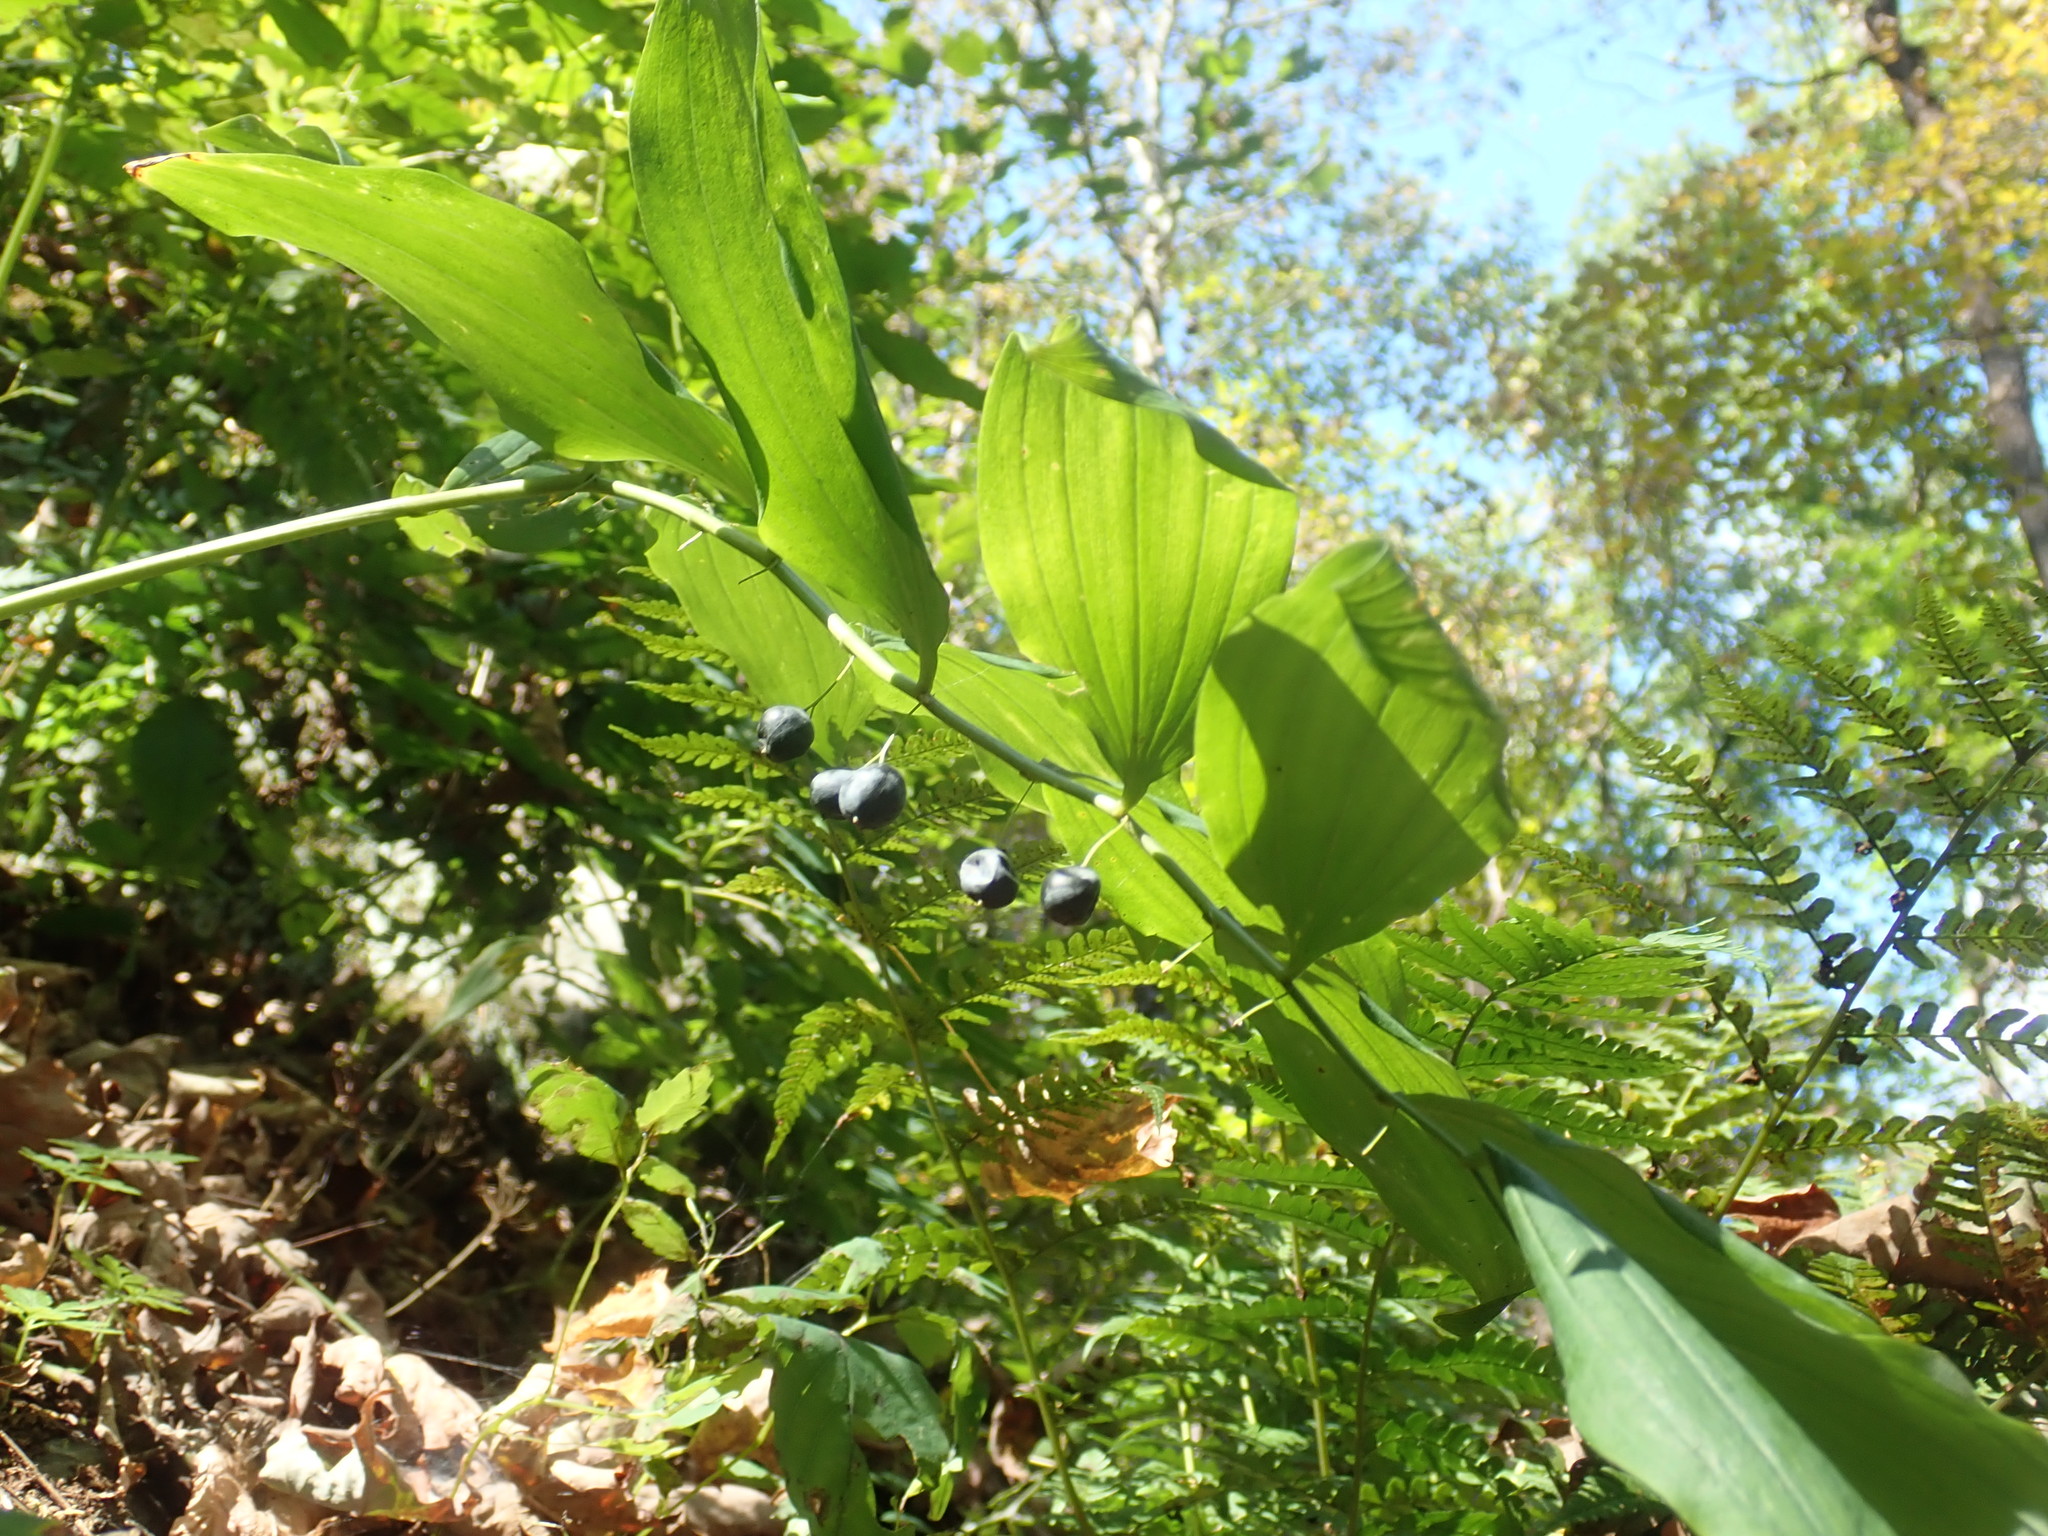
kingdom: Plantae
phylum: Tracheophyta
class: Liliopsida
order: Asparagales
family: Asparagaceae
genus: Polygonatum
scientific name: Polygonatum pubescens
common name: Downy solomon's seal
